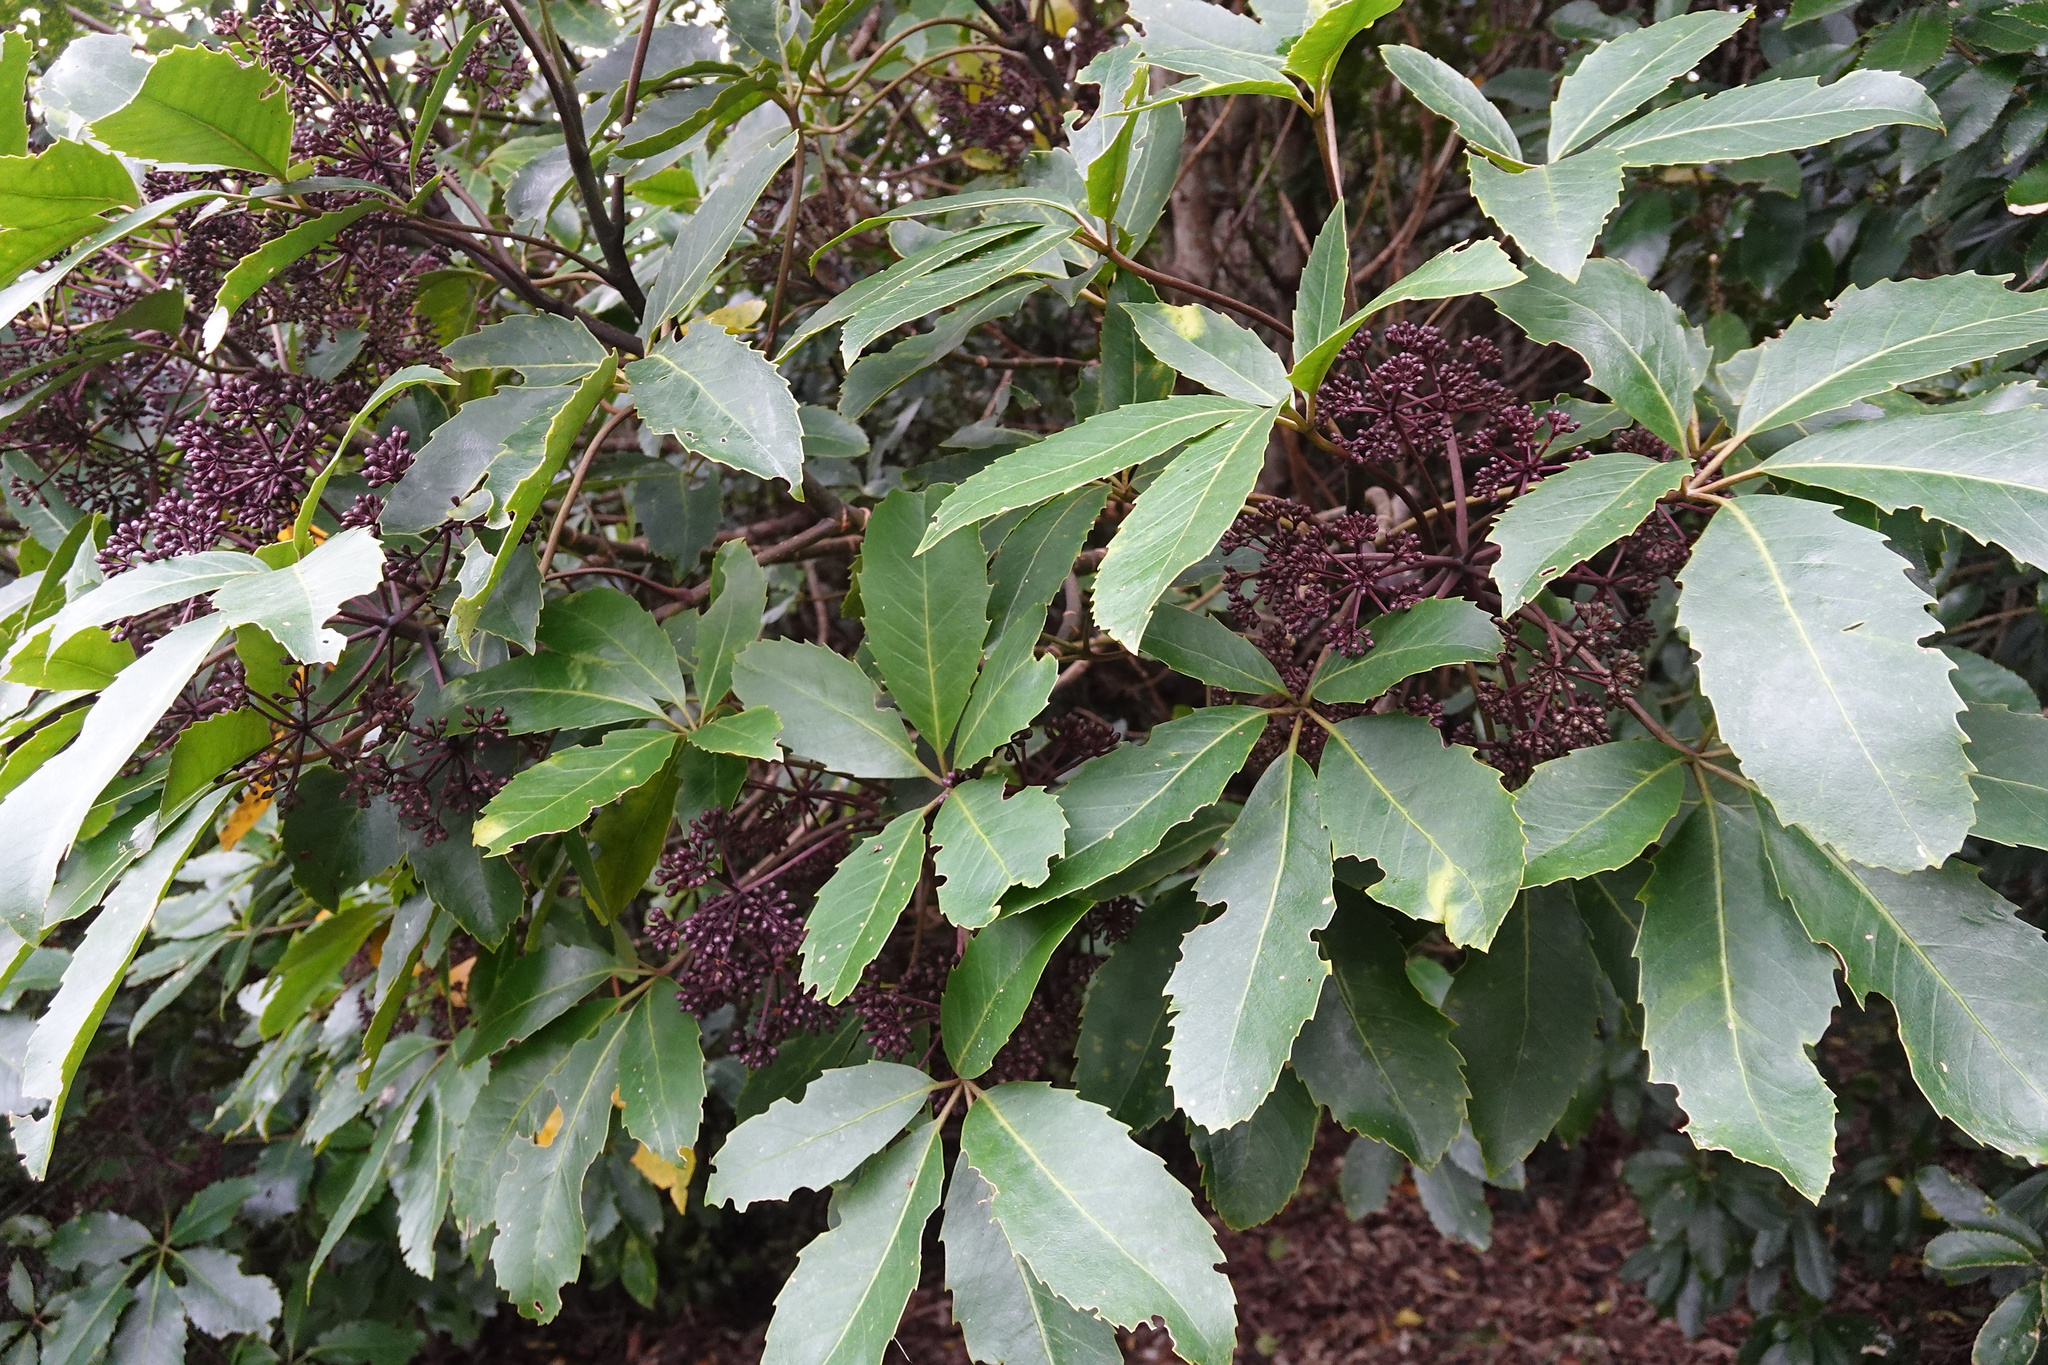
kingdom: Plantae
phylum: Tracheophyta
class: Magnoliopsida
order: Apiales
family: Araliaceae
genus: Neopanax
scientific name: Neopanax arboreus
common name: Five-fingers
